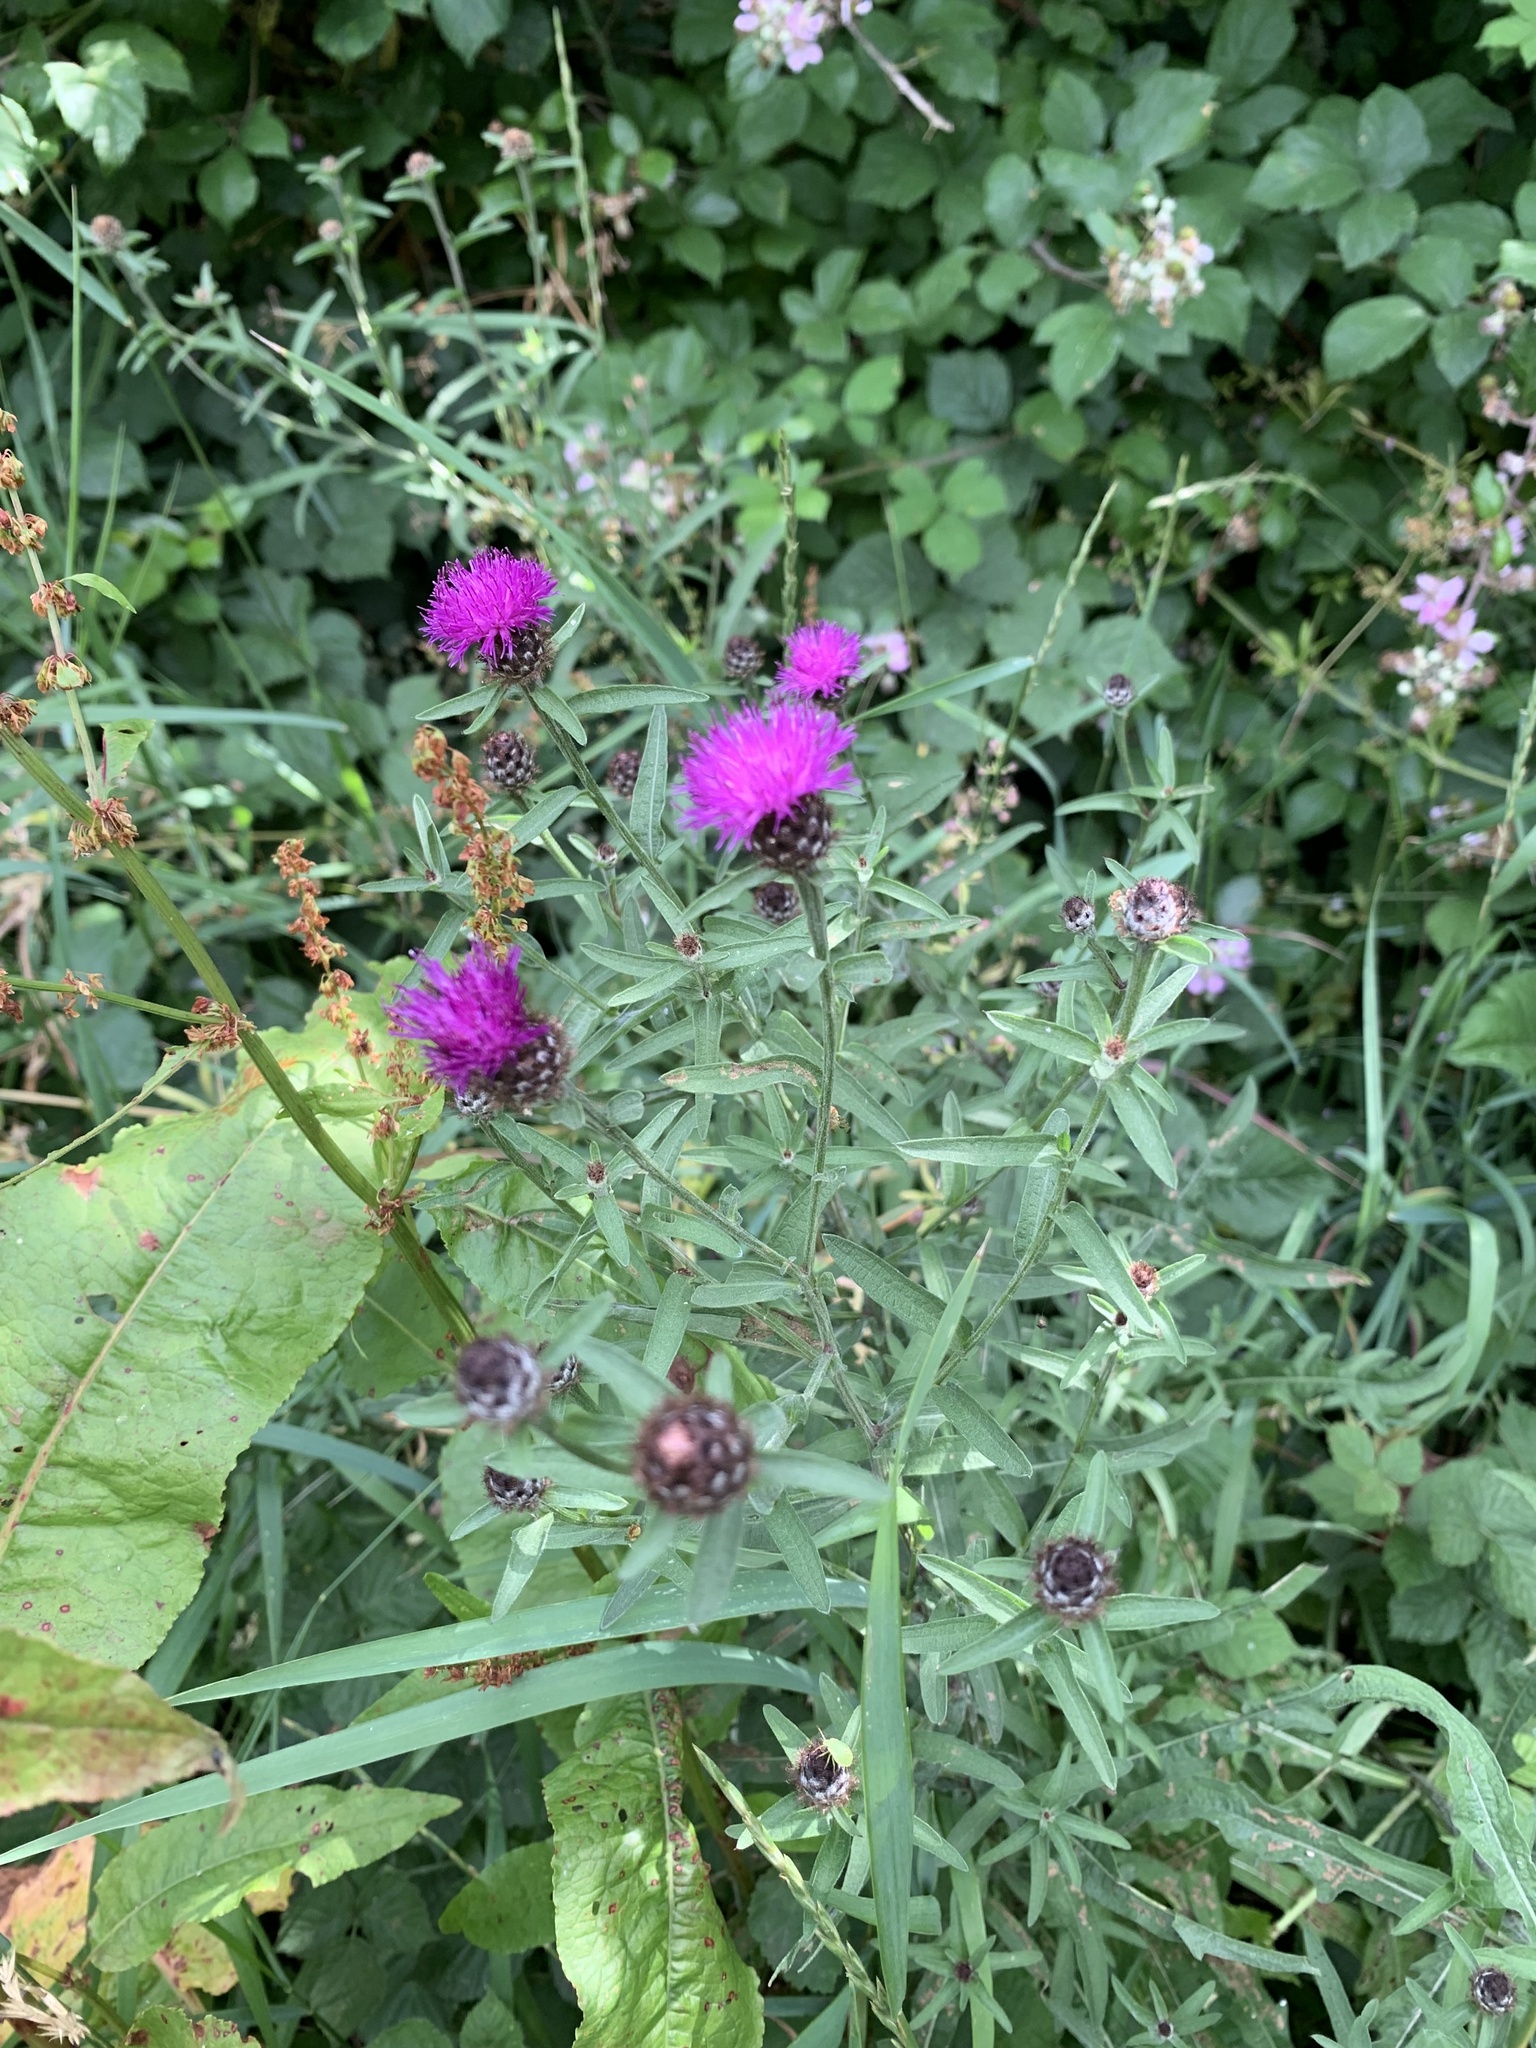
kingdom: Plantae
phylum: Tracheophyta
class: Magnoliopsida
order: Asterales
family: Asteraceae
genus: Centaurea
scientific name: Centaurea nigra
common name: Lesser knapweed
